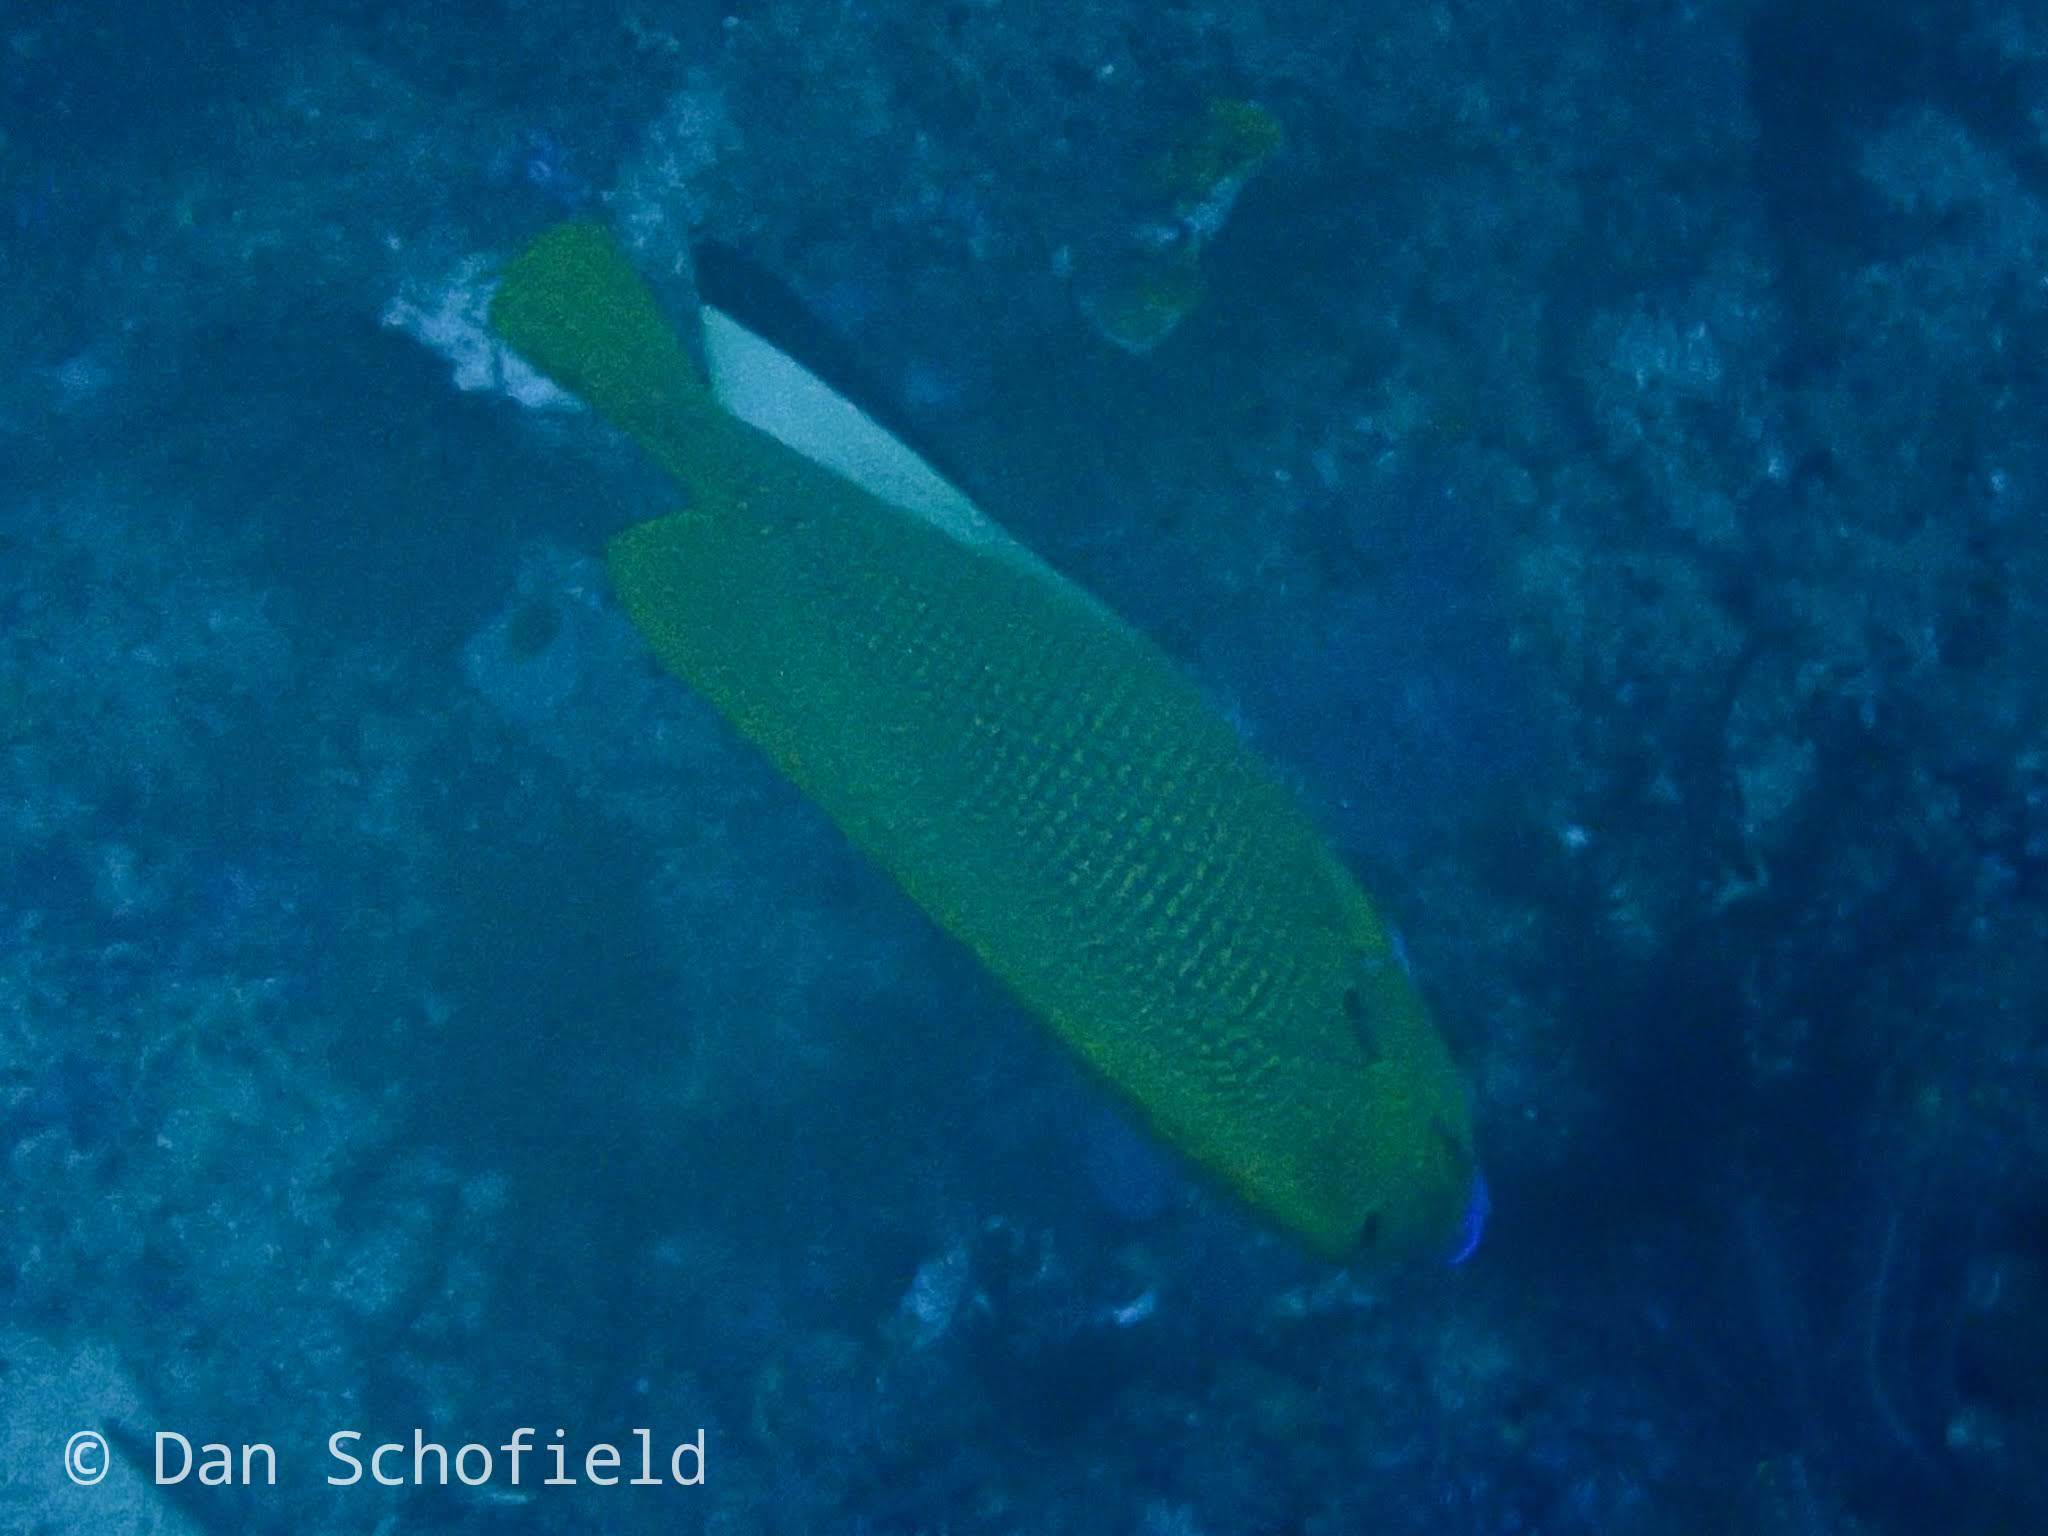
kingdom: Animalia
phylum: Chordata
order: Perciformes
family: Pomacanthidae
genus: Apolemichthys
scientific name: Apolemichthys trimaculatus
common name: Threespot angelfish
